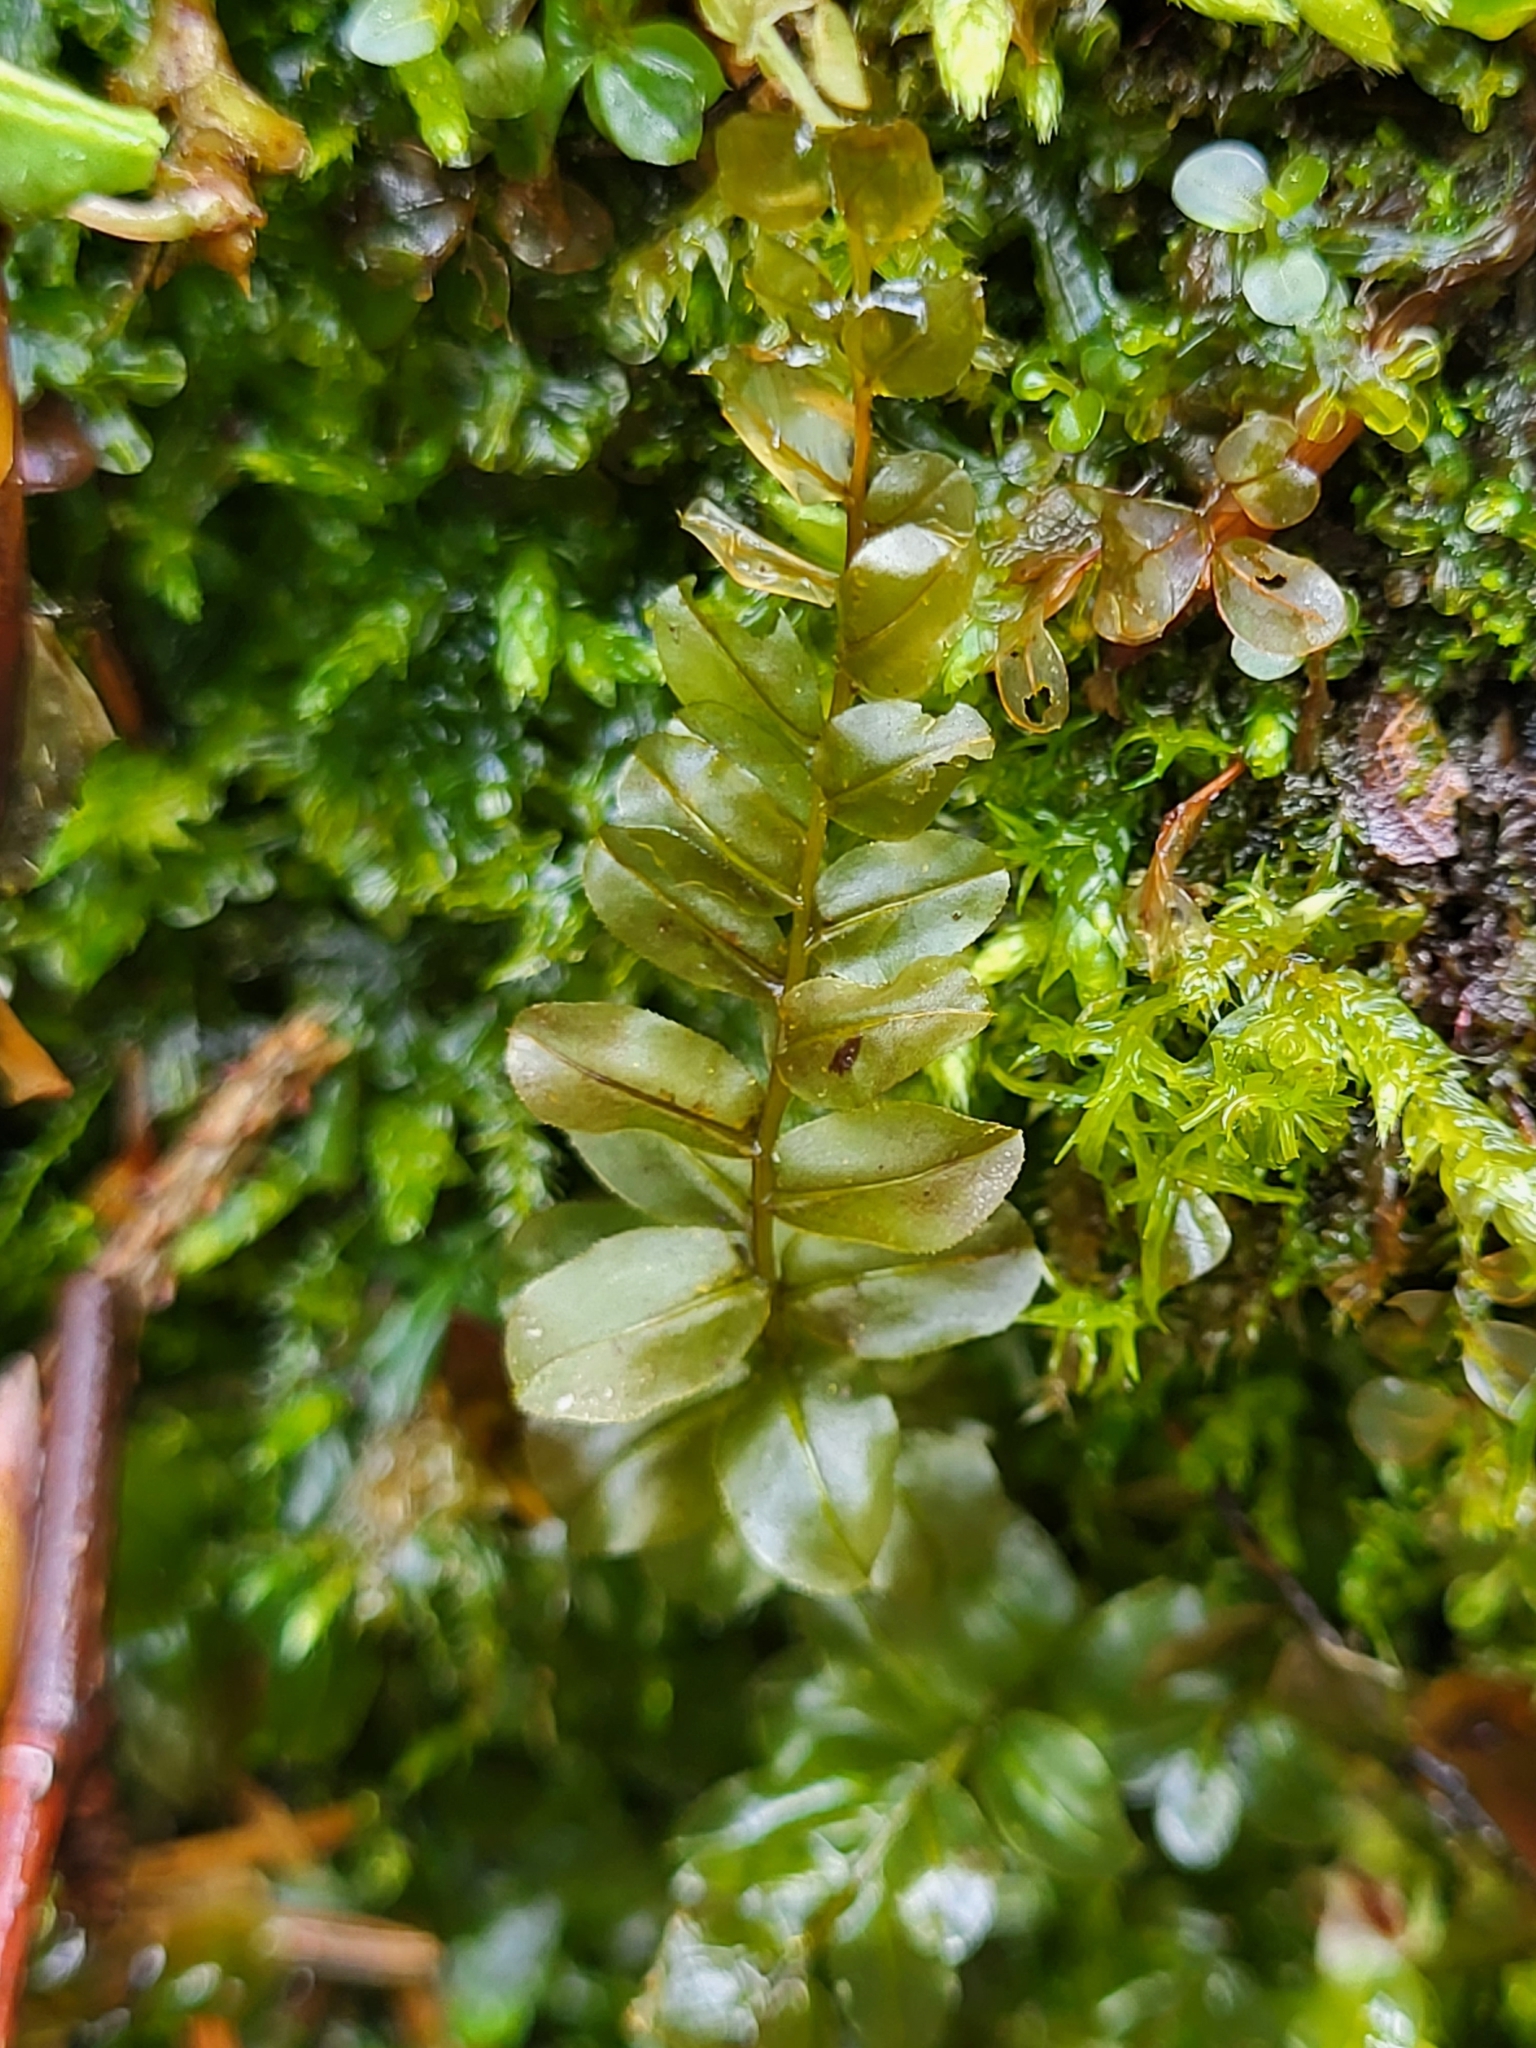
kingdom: Plantae
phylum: Bryophyta
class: Bryopsida
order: Bryales
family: Mniaceae
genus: Plagiomnium
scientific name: Plagiomnium affine
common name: Many-fruited thyme-moss
